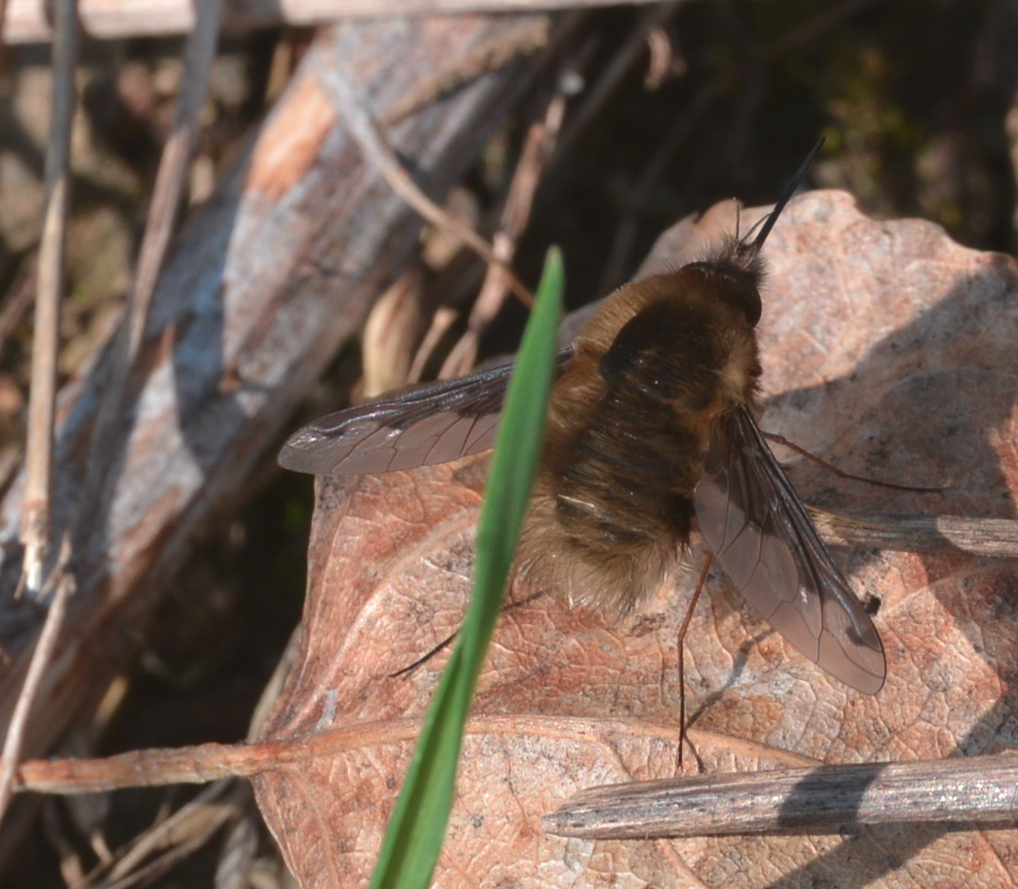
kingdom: Animalia
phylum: Arthropoda
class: Insecta
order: Diptera
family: Bombyliidae
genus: Bombylius
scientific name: Bombylius major
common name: Bee fly
